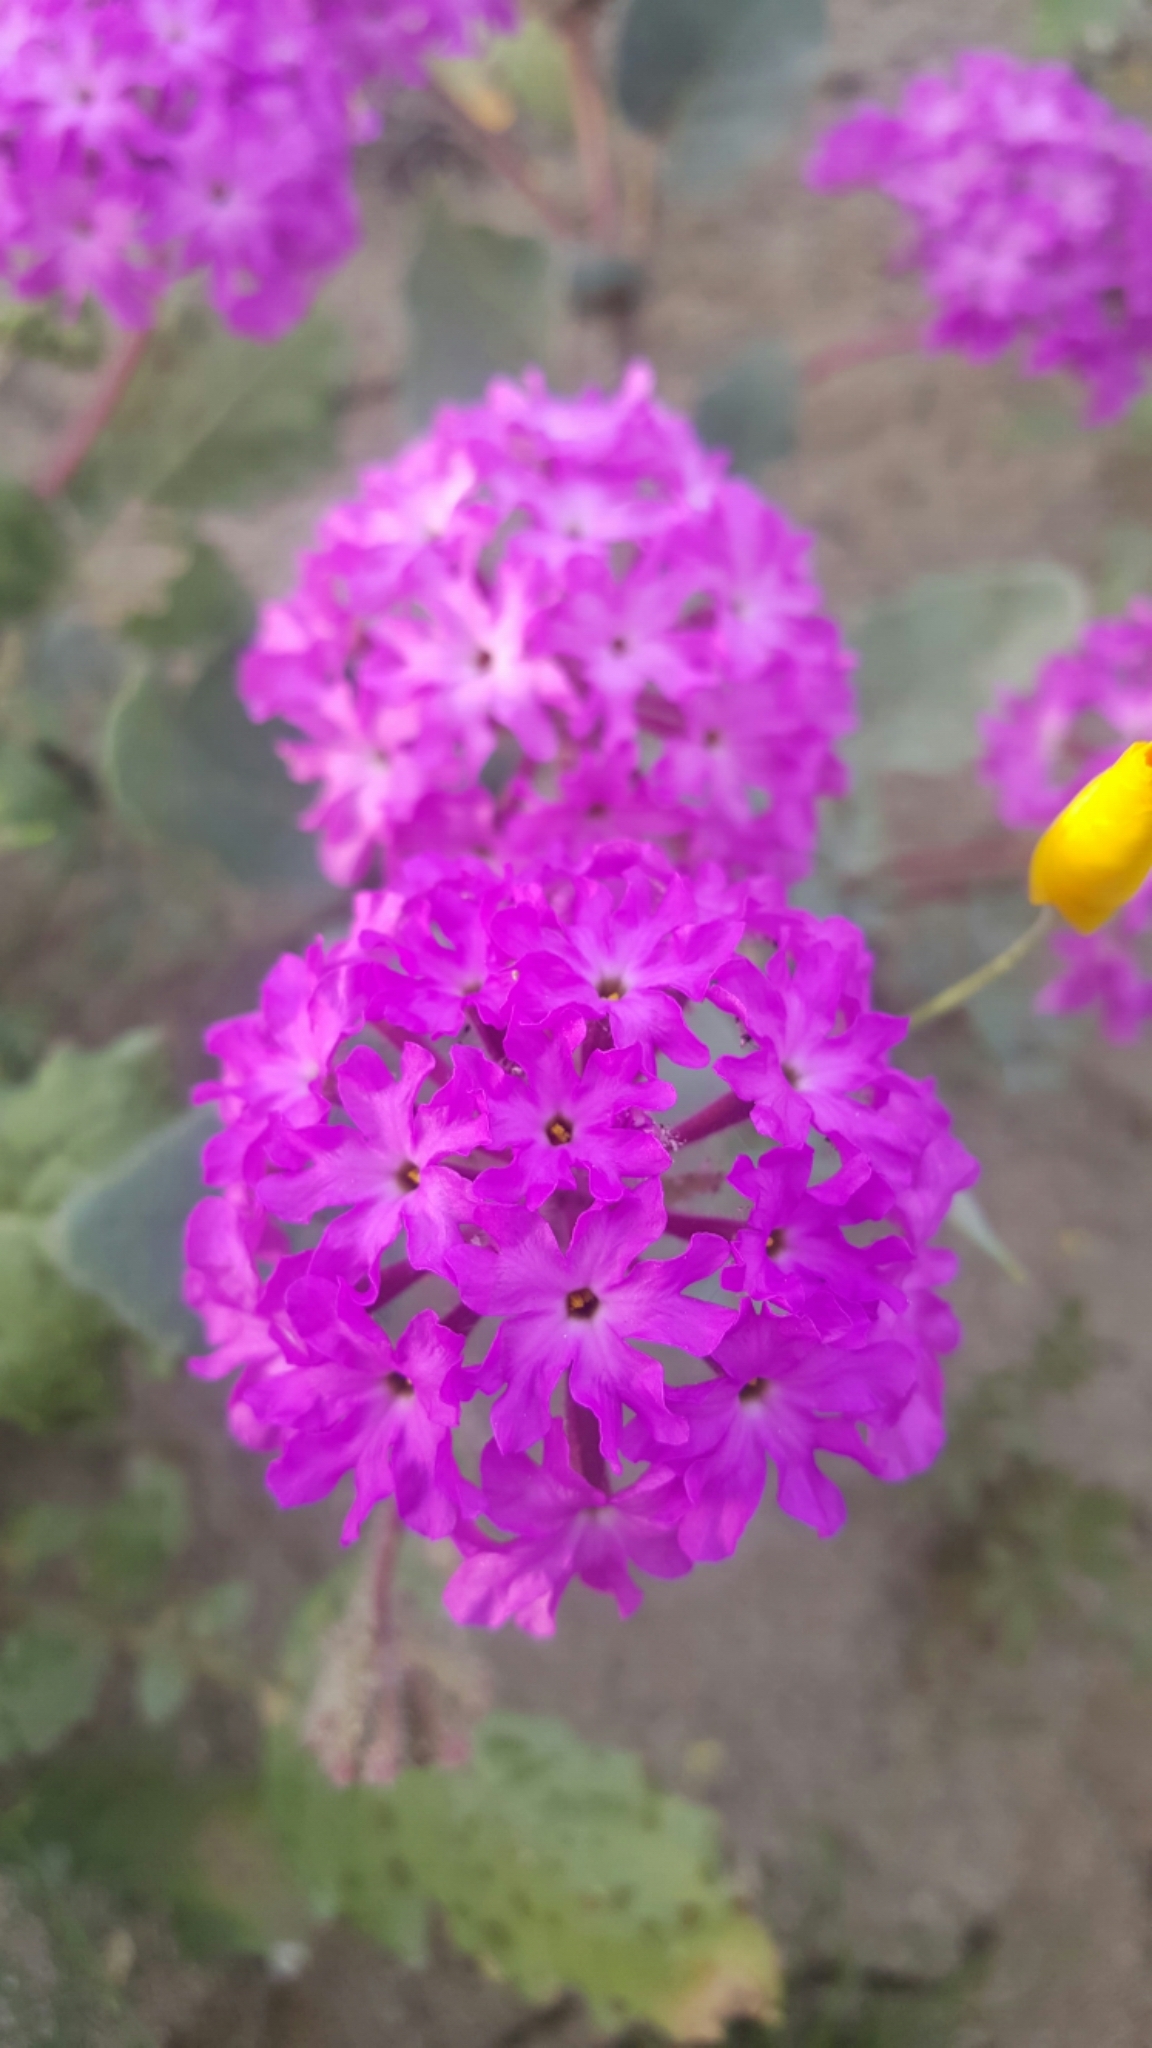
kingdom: Plantae
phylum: Tracheophyta
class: Magnoliopsida
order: Caryophyllales
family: Nyctaginaceae
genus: Abronia
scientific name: Abronia villosa
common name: Desert sand-verbena
